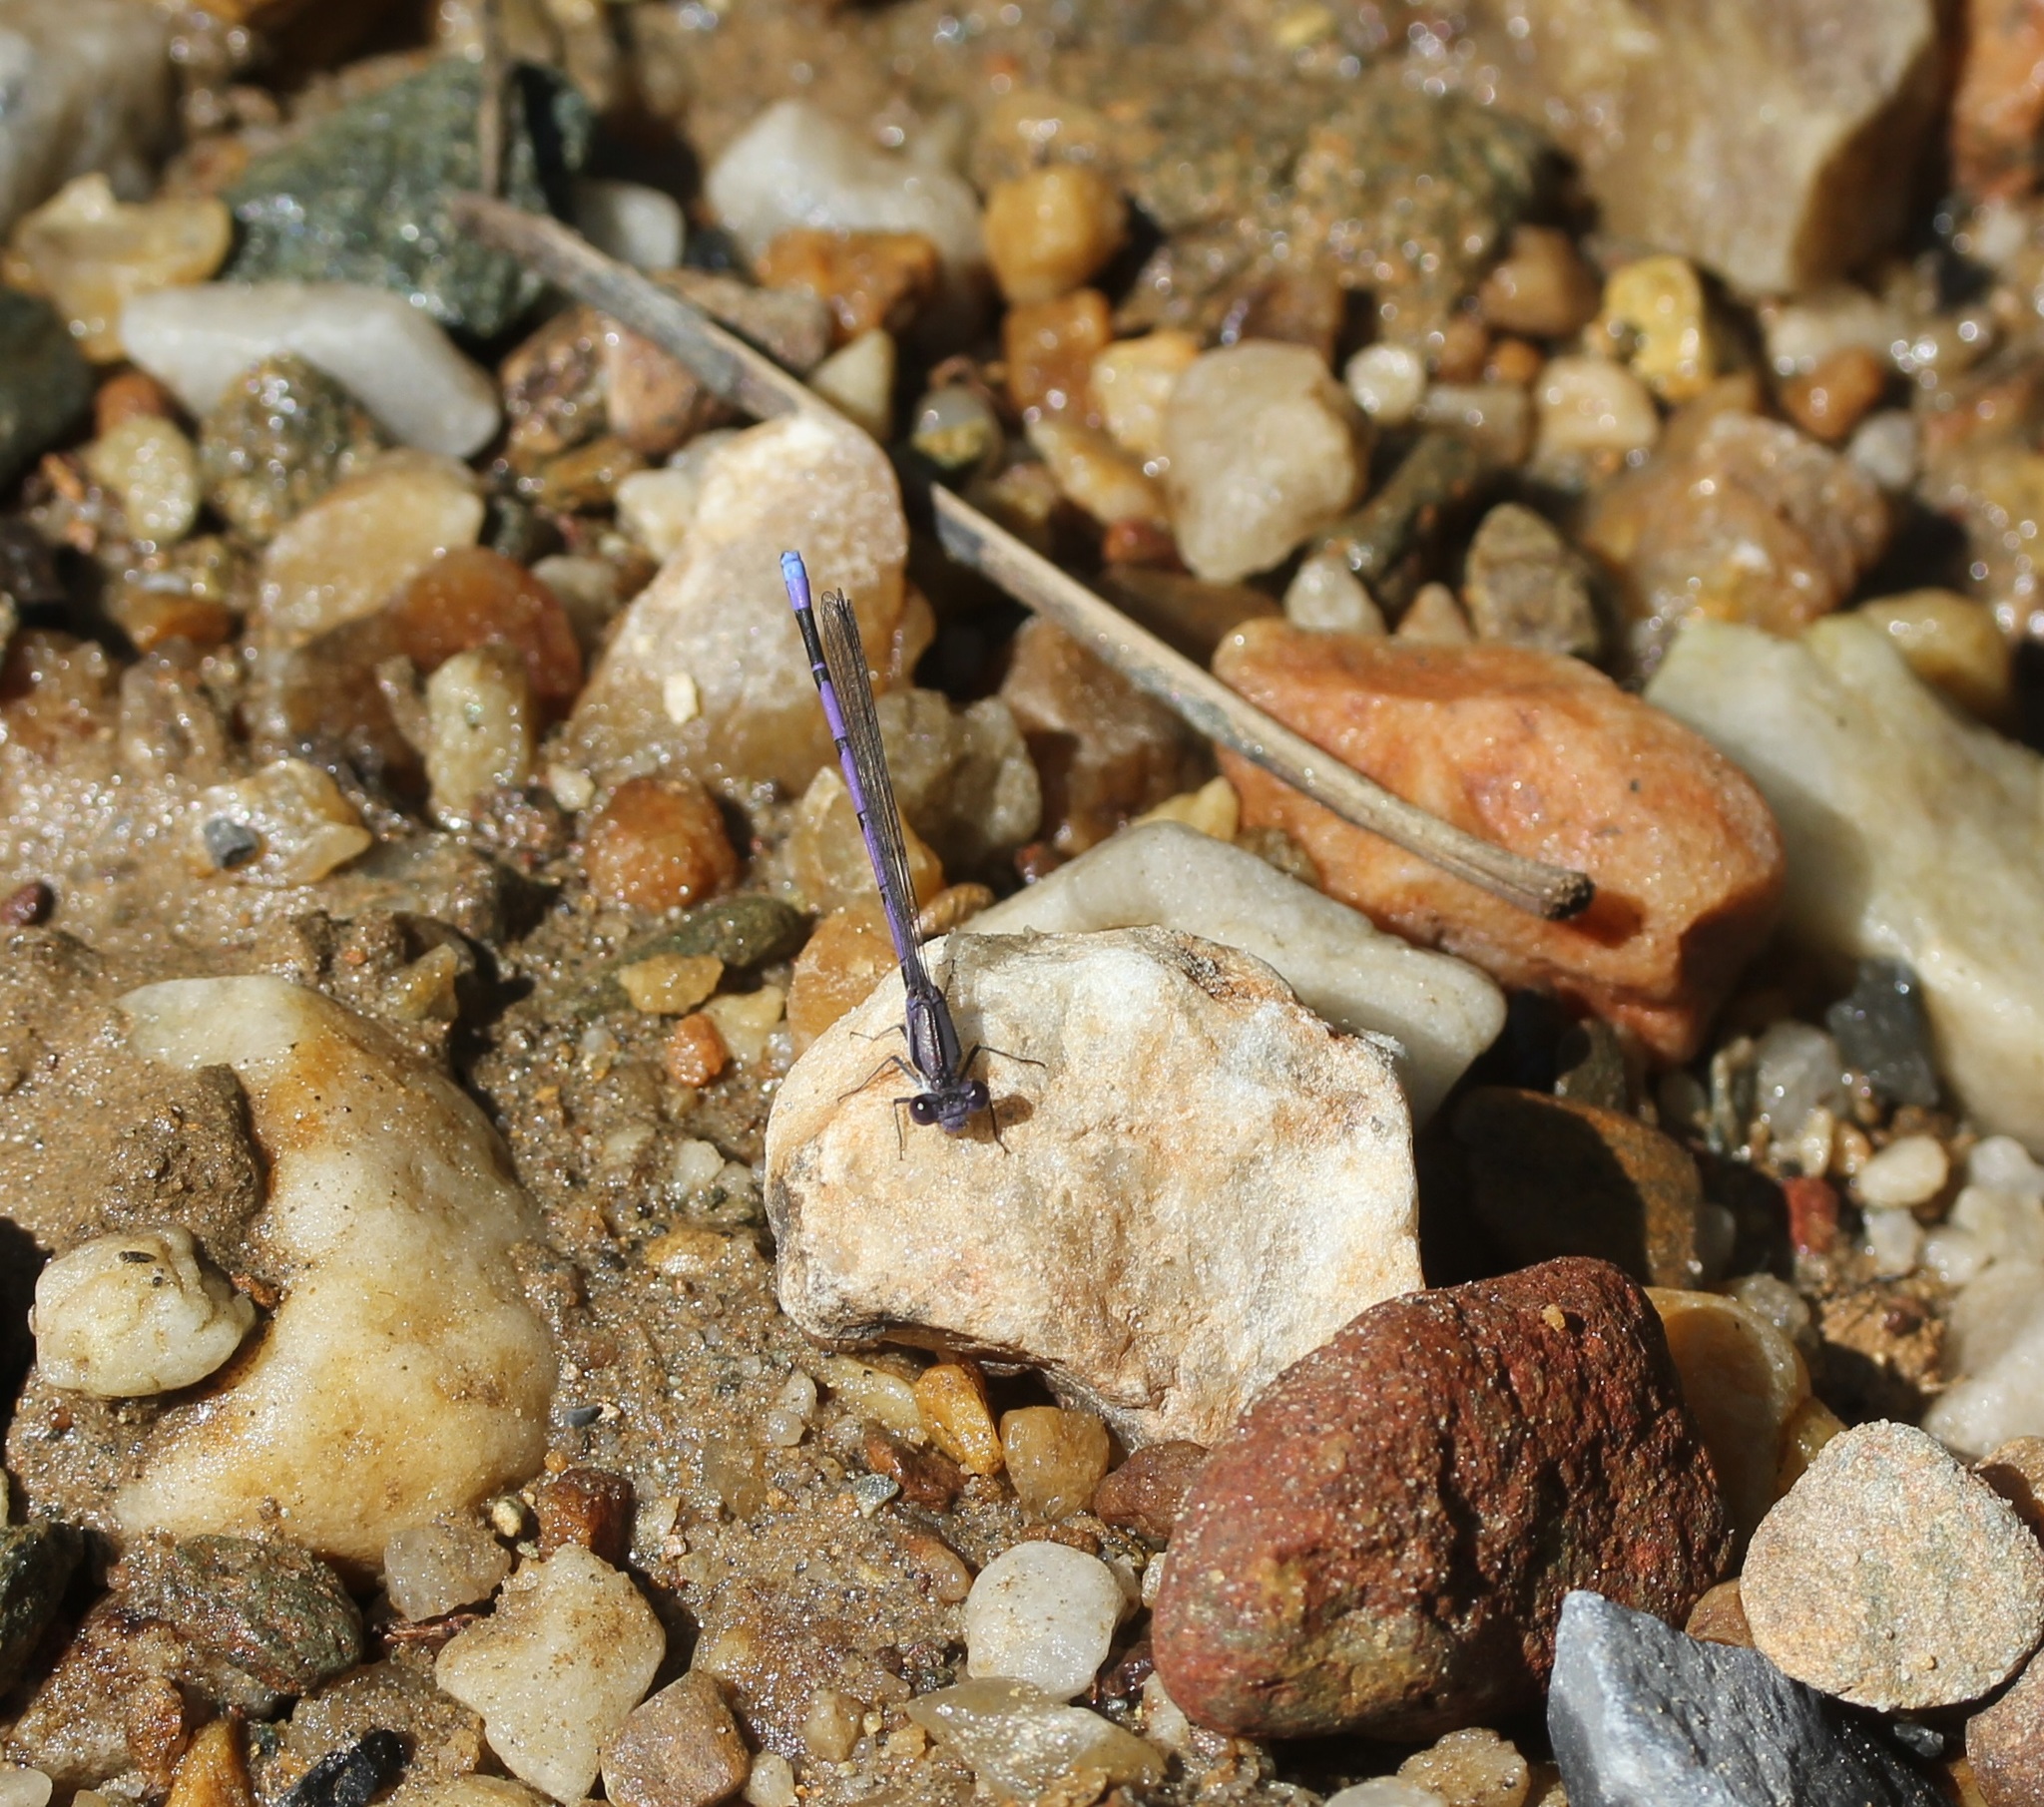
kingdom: Animalia
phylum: Arthropoda
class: Insecta
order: Odonata
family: Coenagrionidae
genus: Argia
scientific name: Argia fumipennis
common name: Variable dancer
